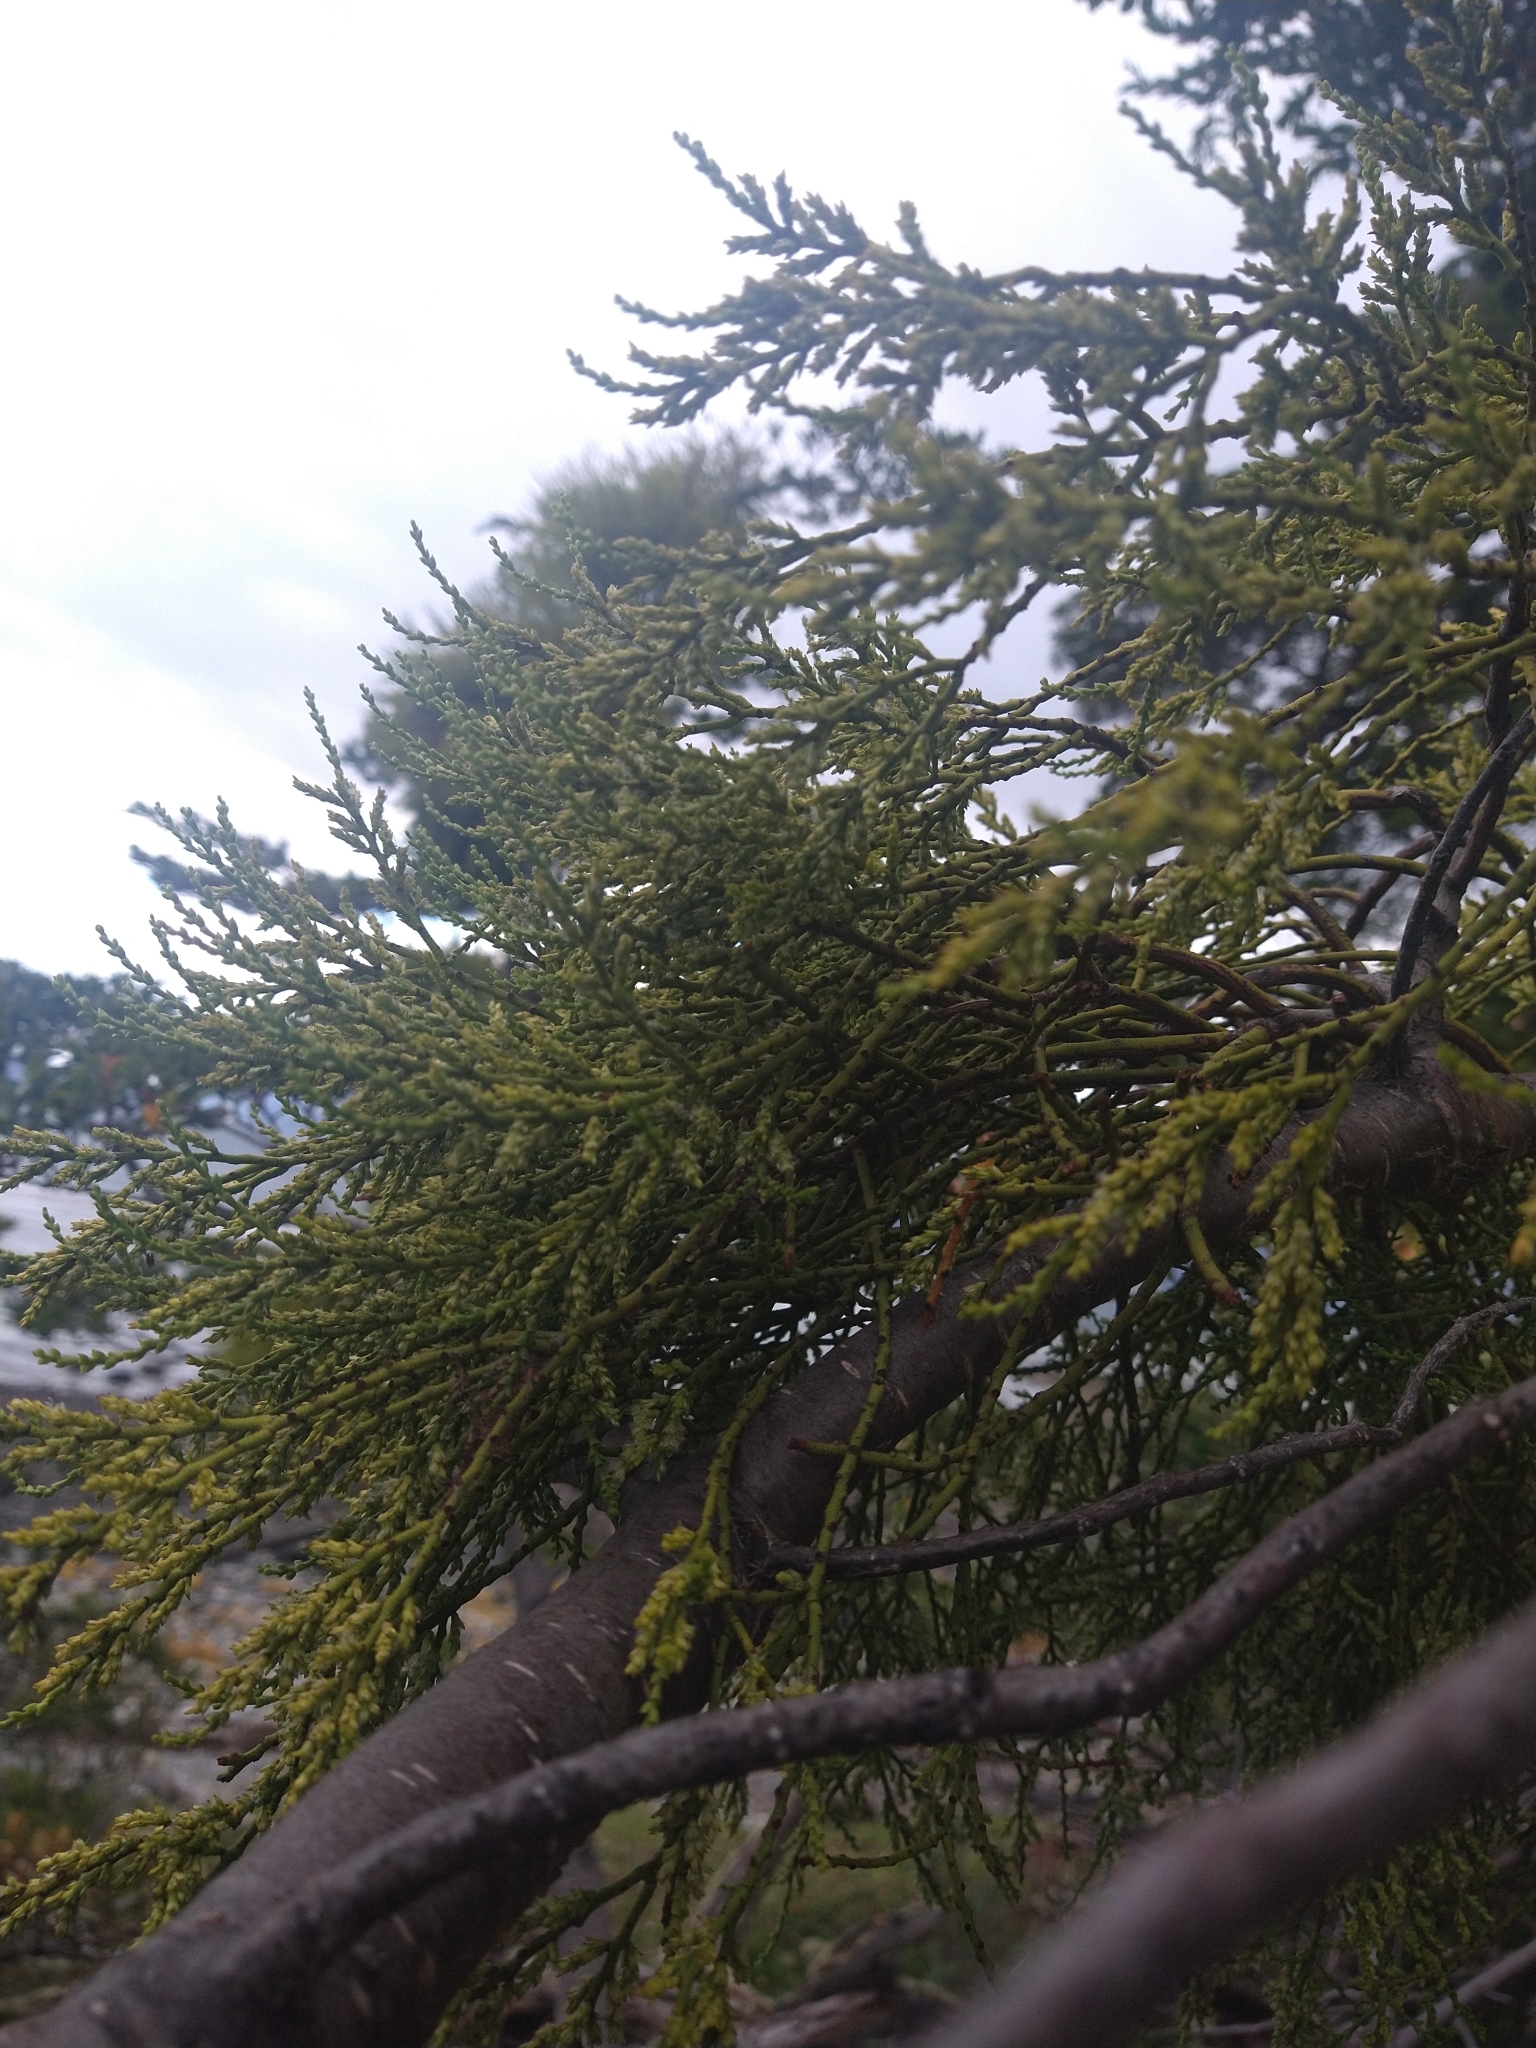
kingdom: Plantae
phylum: Tracheophyta
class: Magnoliopsida
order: Santalales
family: Misodendraceae
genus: Misodendrum
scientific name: Misodendrum punctulatum
